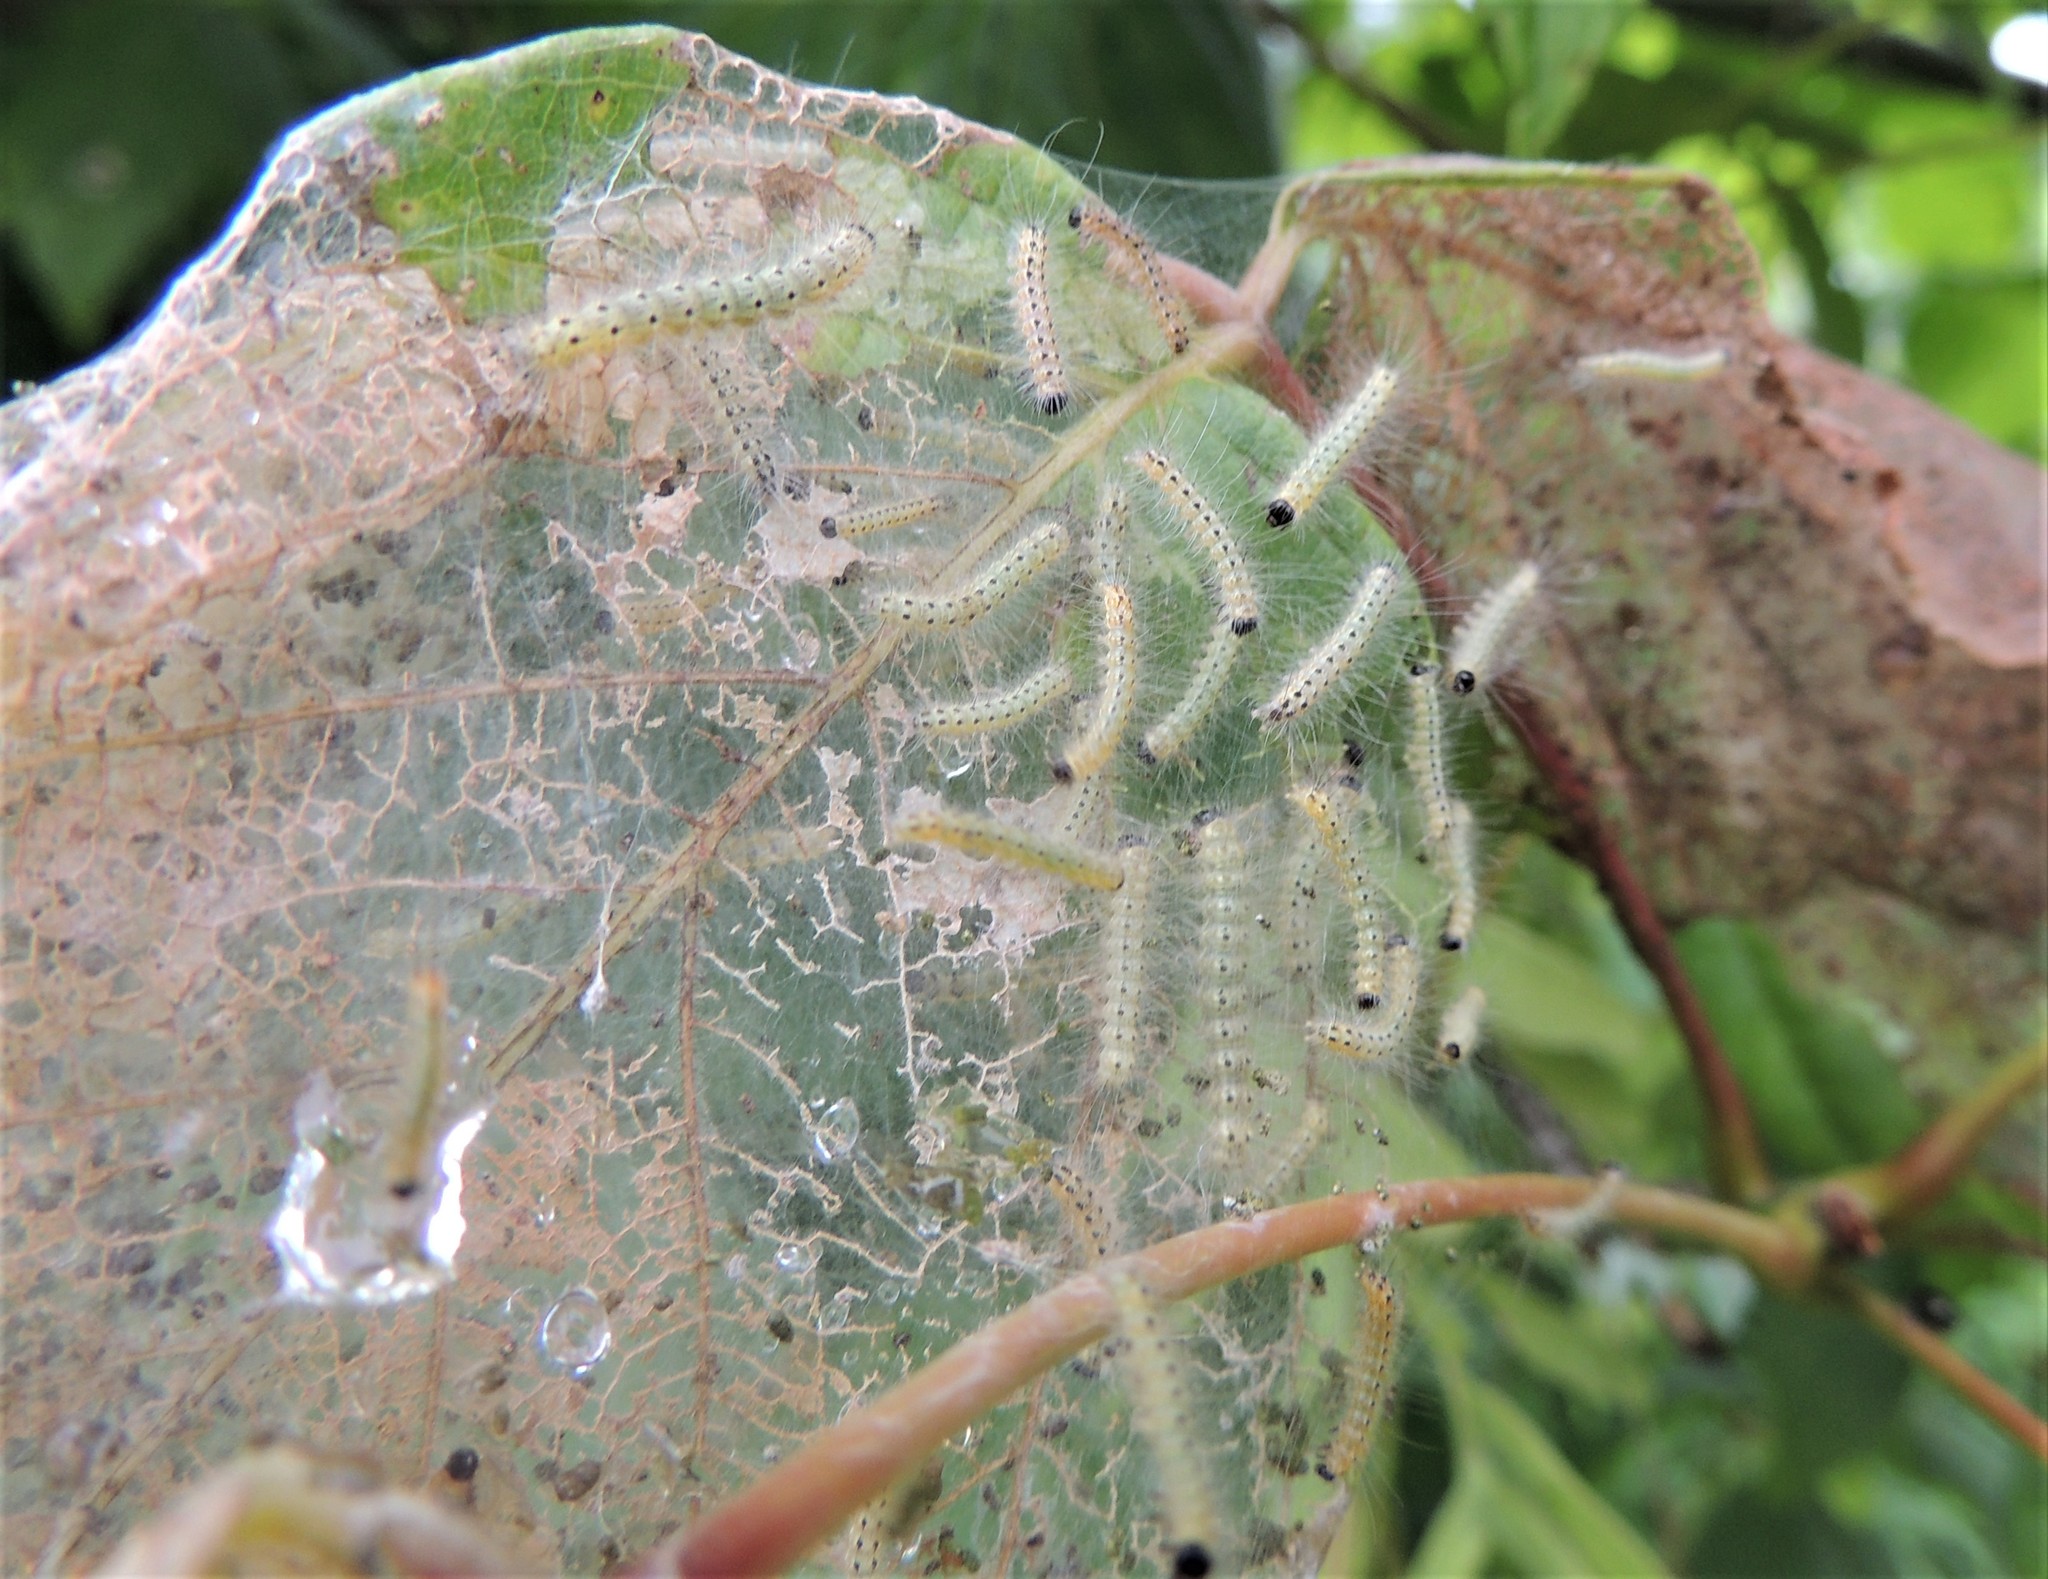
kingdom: Animalia
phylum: Arthropoda
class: Insecta
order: Lepidoptera
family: Erebidae
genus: Hyphantria
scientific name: Hyphantria cunea
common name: American white moth
